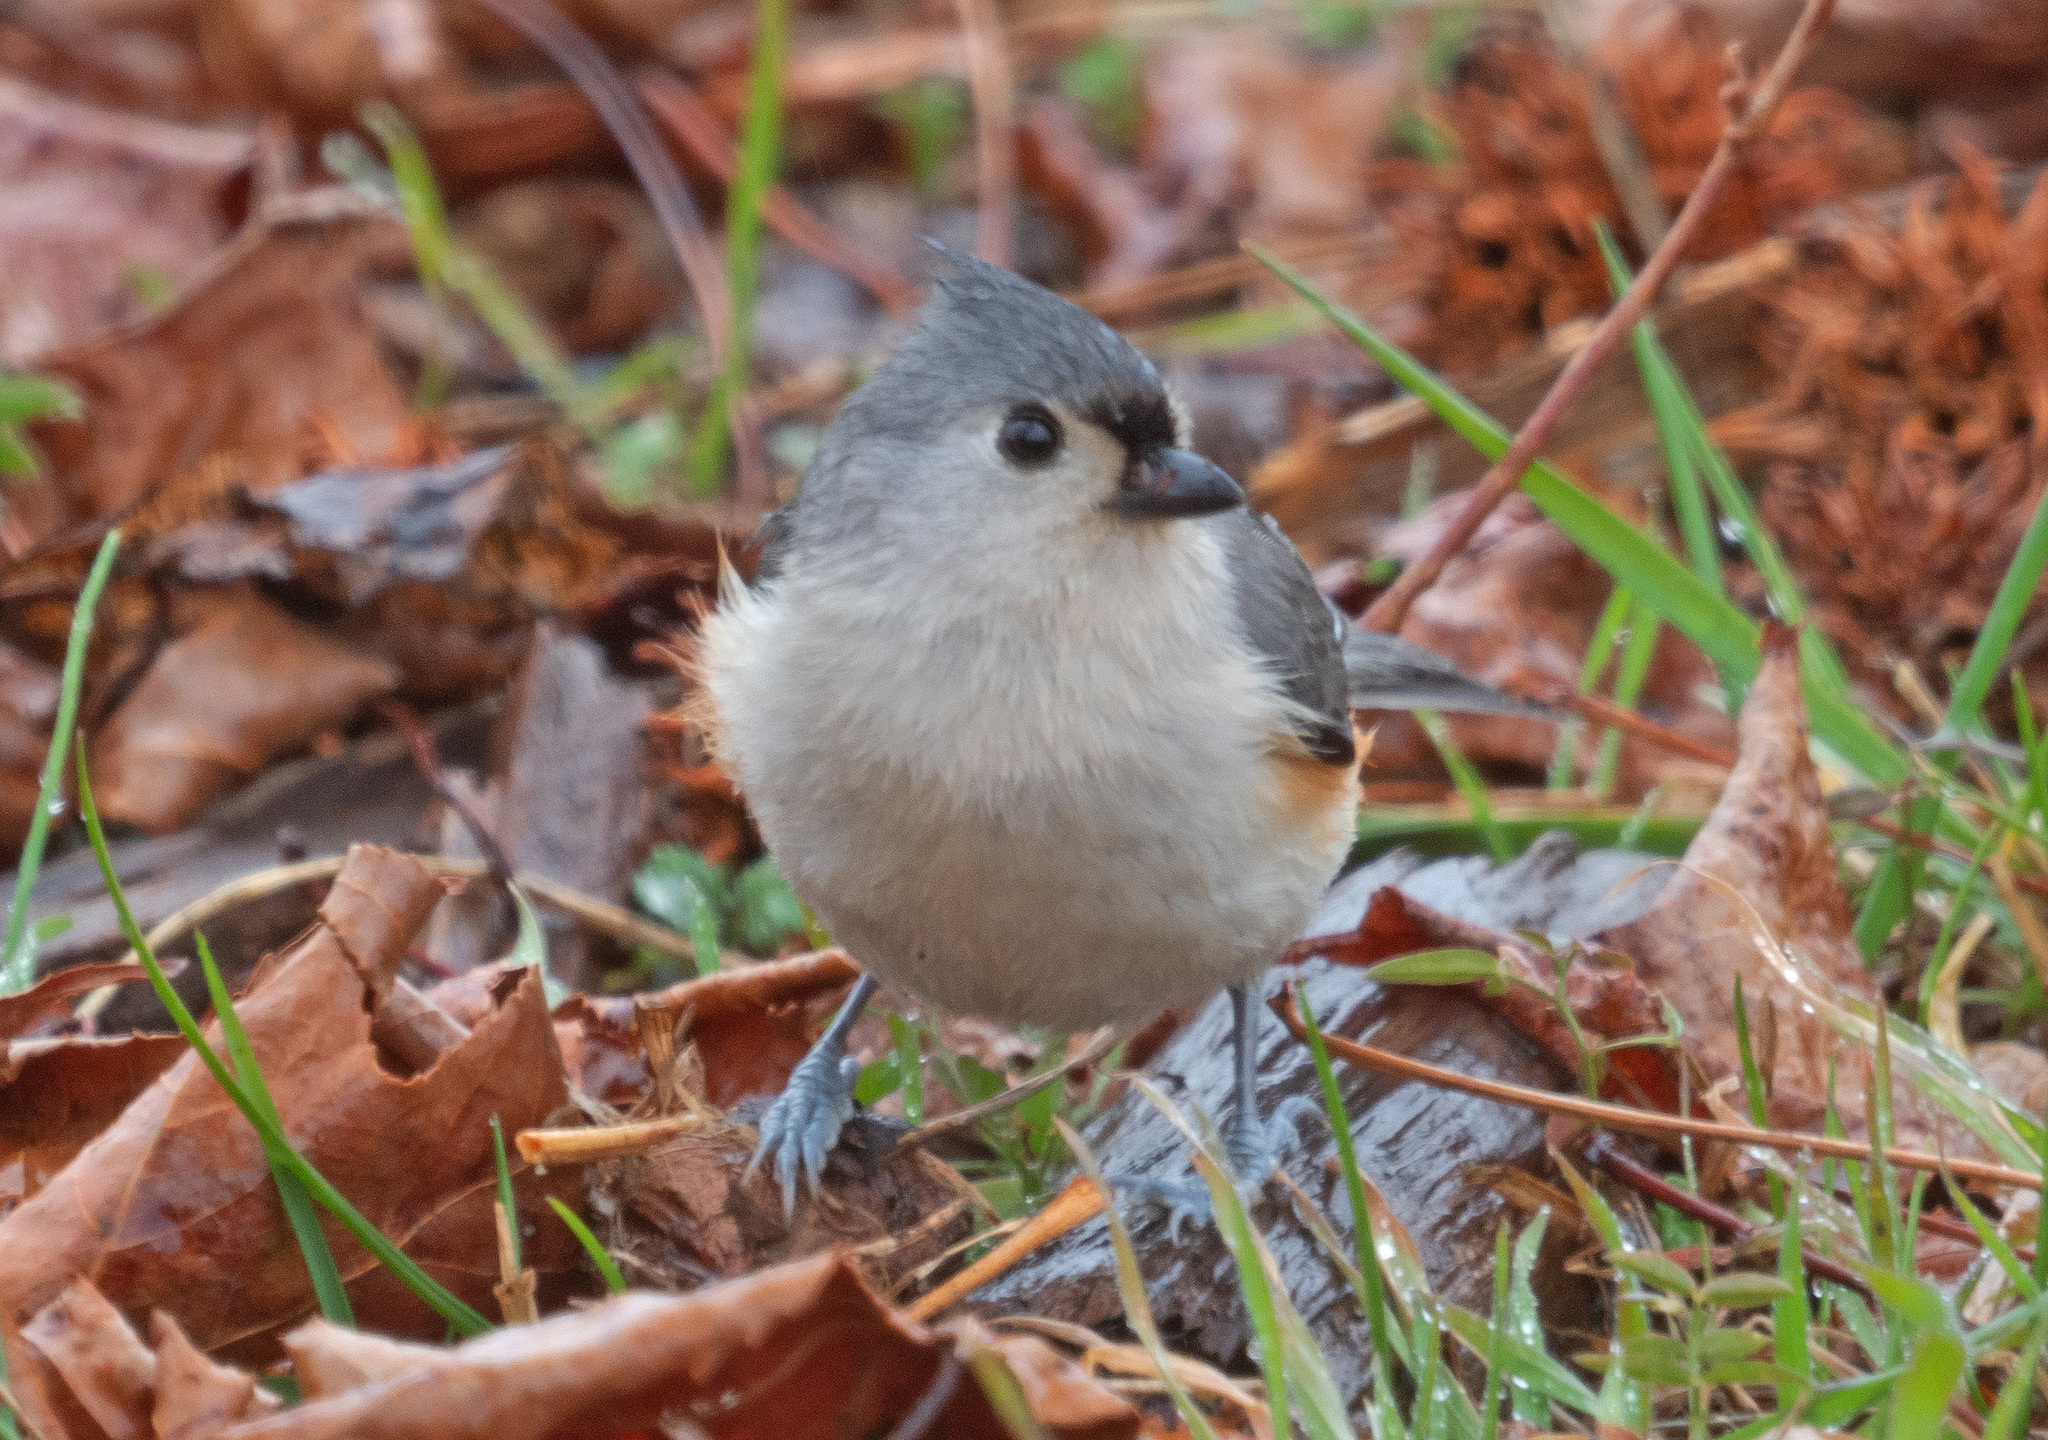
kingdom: Animalia
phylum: Chordata
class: Aves
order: Passeriformes
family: Paridae
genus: Baeolophus
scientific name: Baeolophus bicolor
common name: Tufted titmouse
